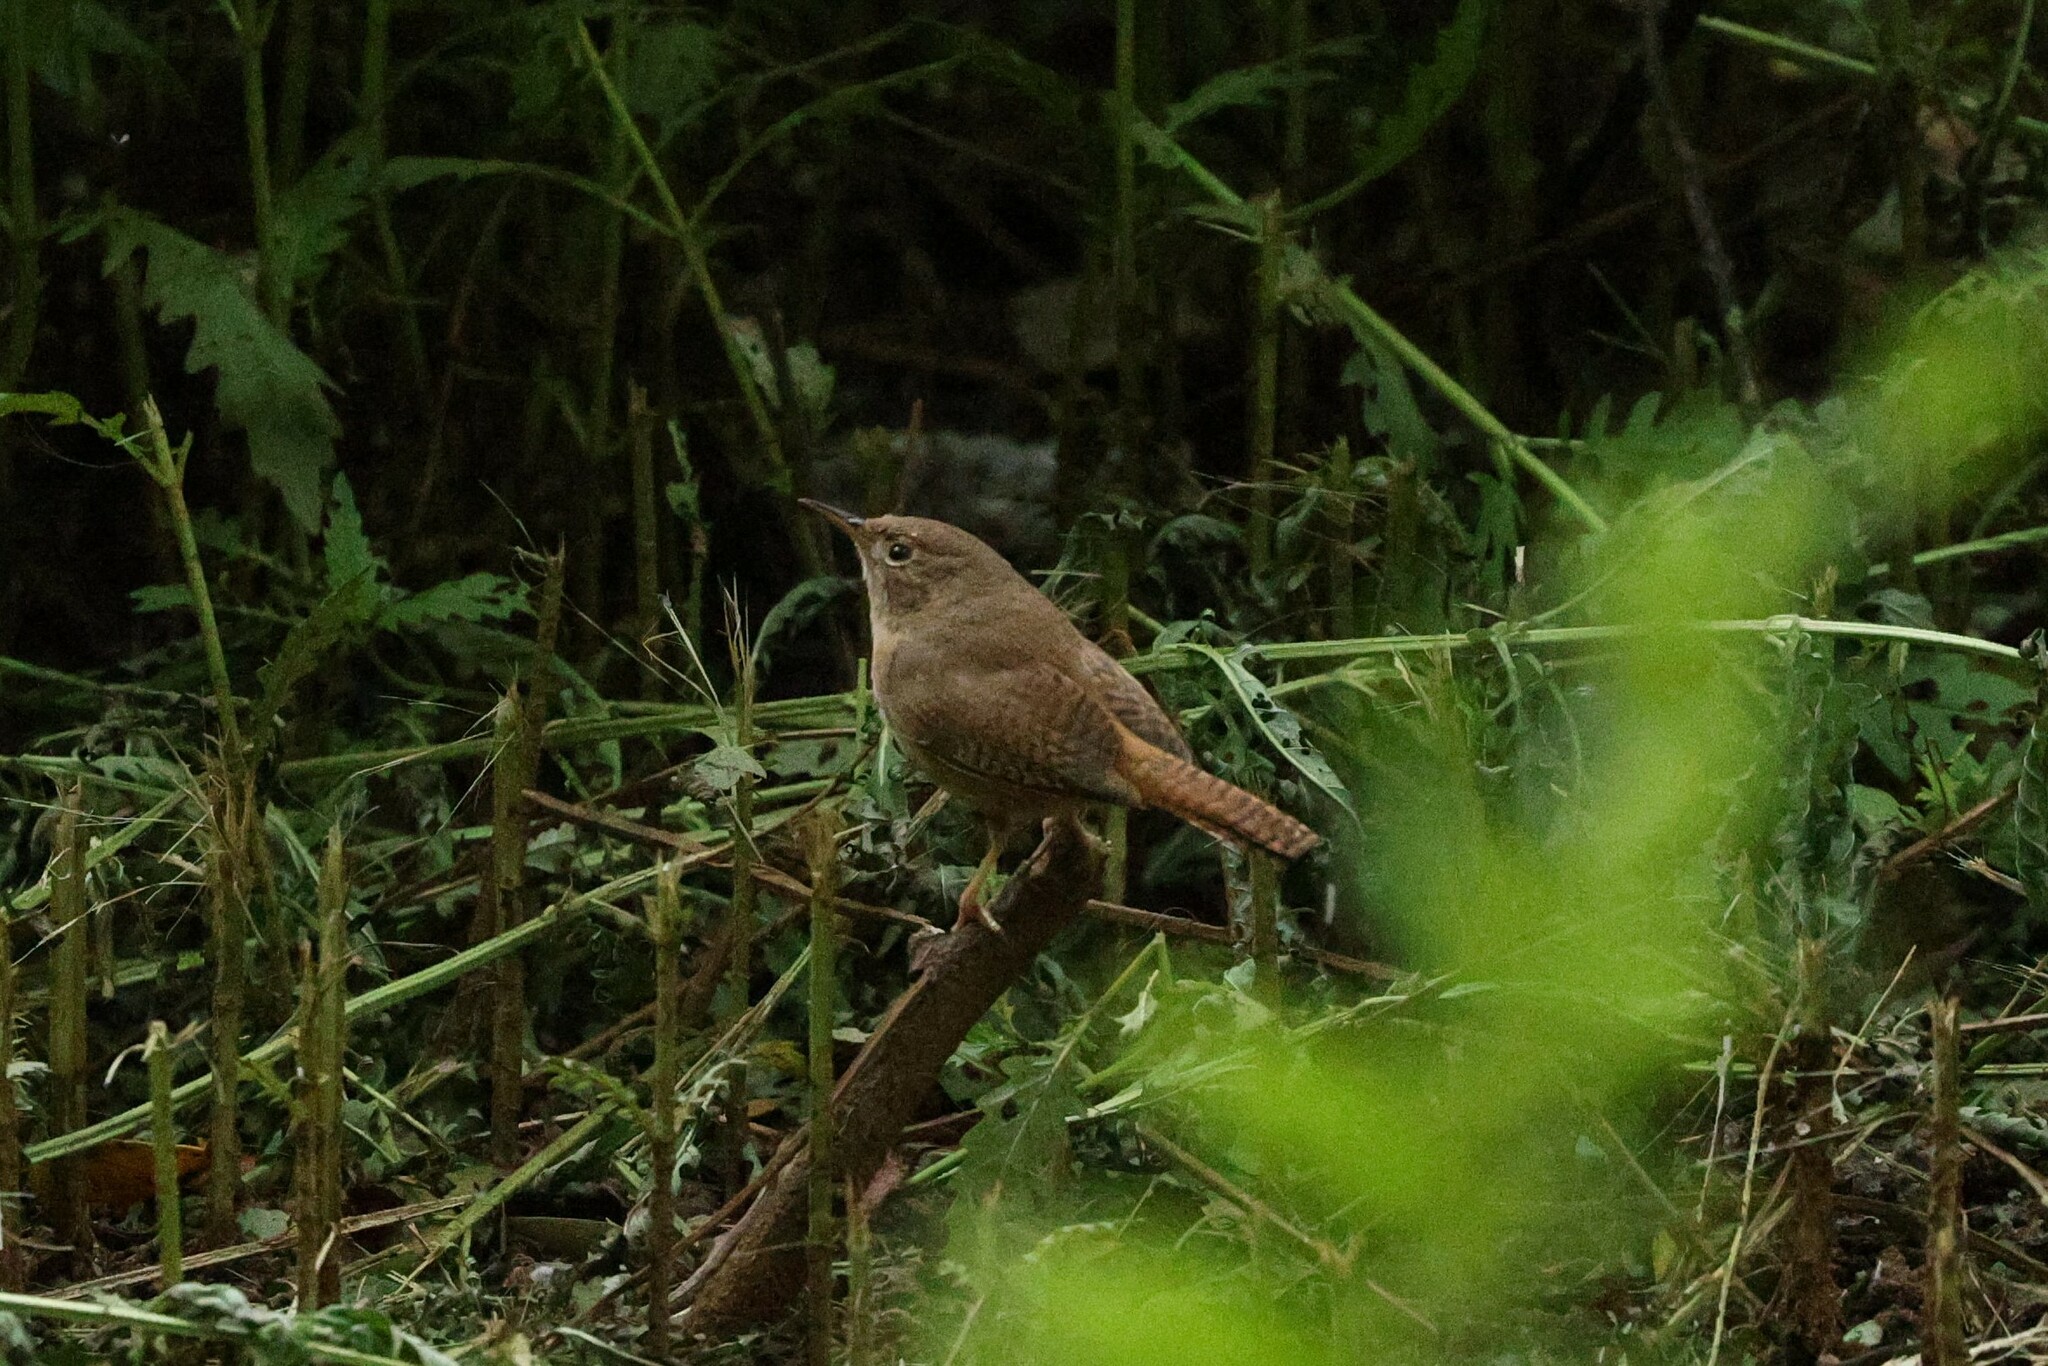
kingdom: Animalia
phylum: Chordata
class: Aves
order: Passeriformes
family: Troglodytidae
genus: Troglodytes
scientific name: Troglodytes aedon
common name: House wren
